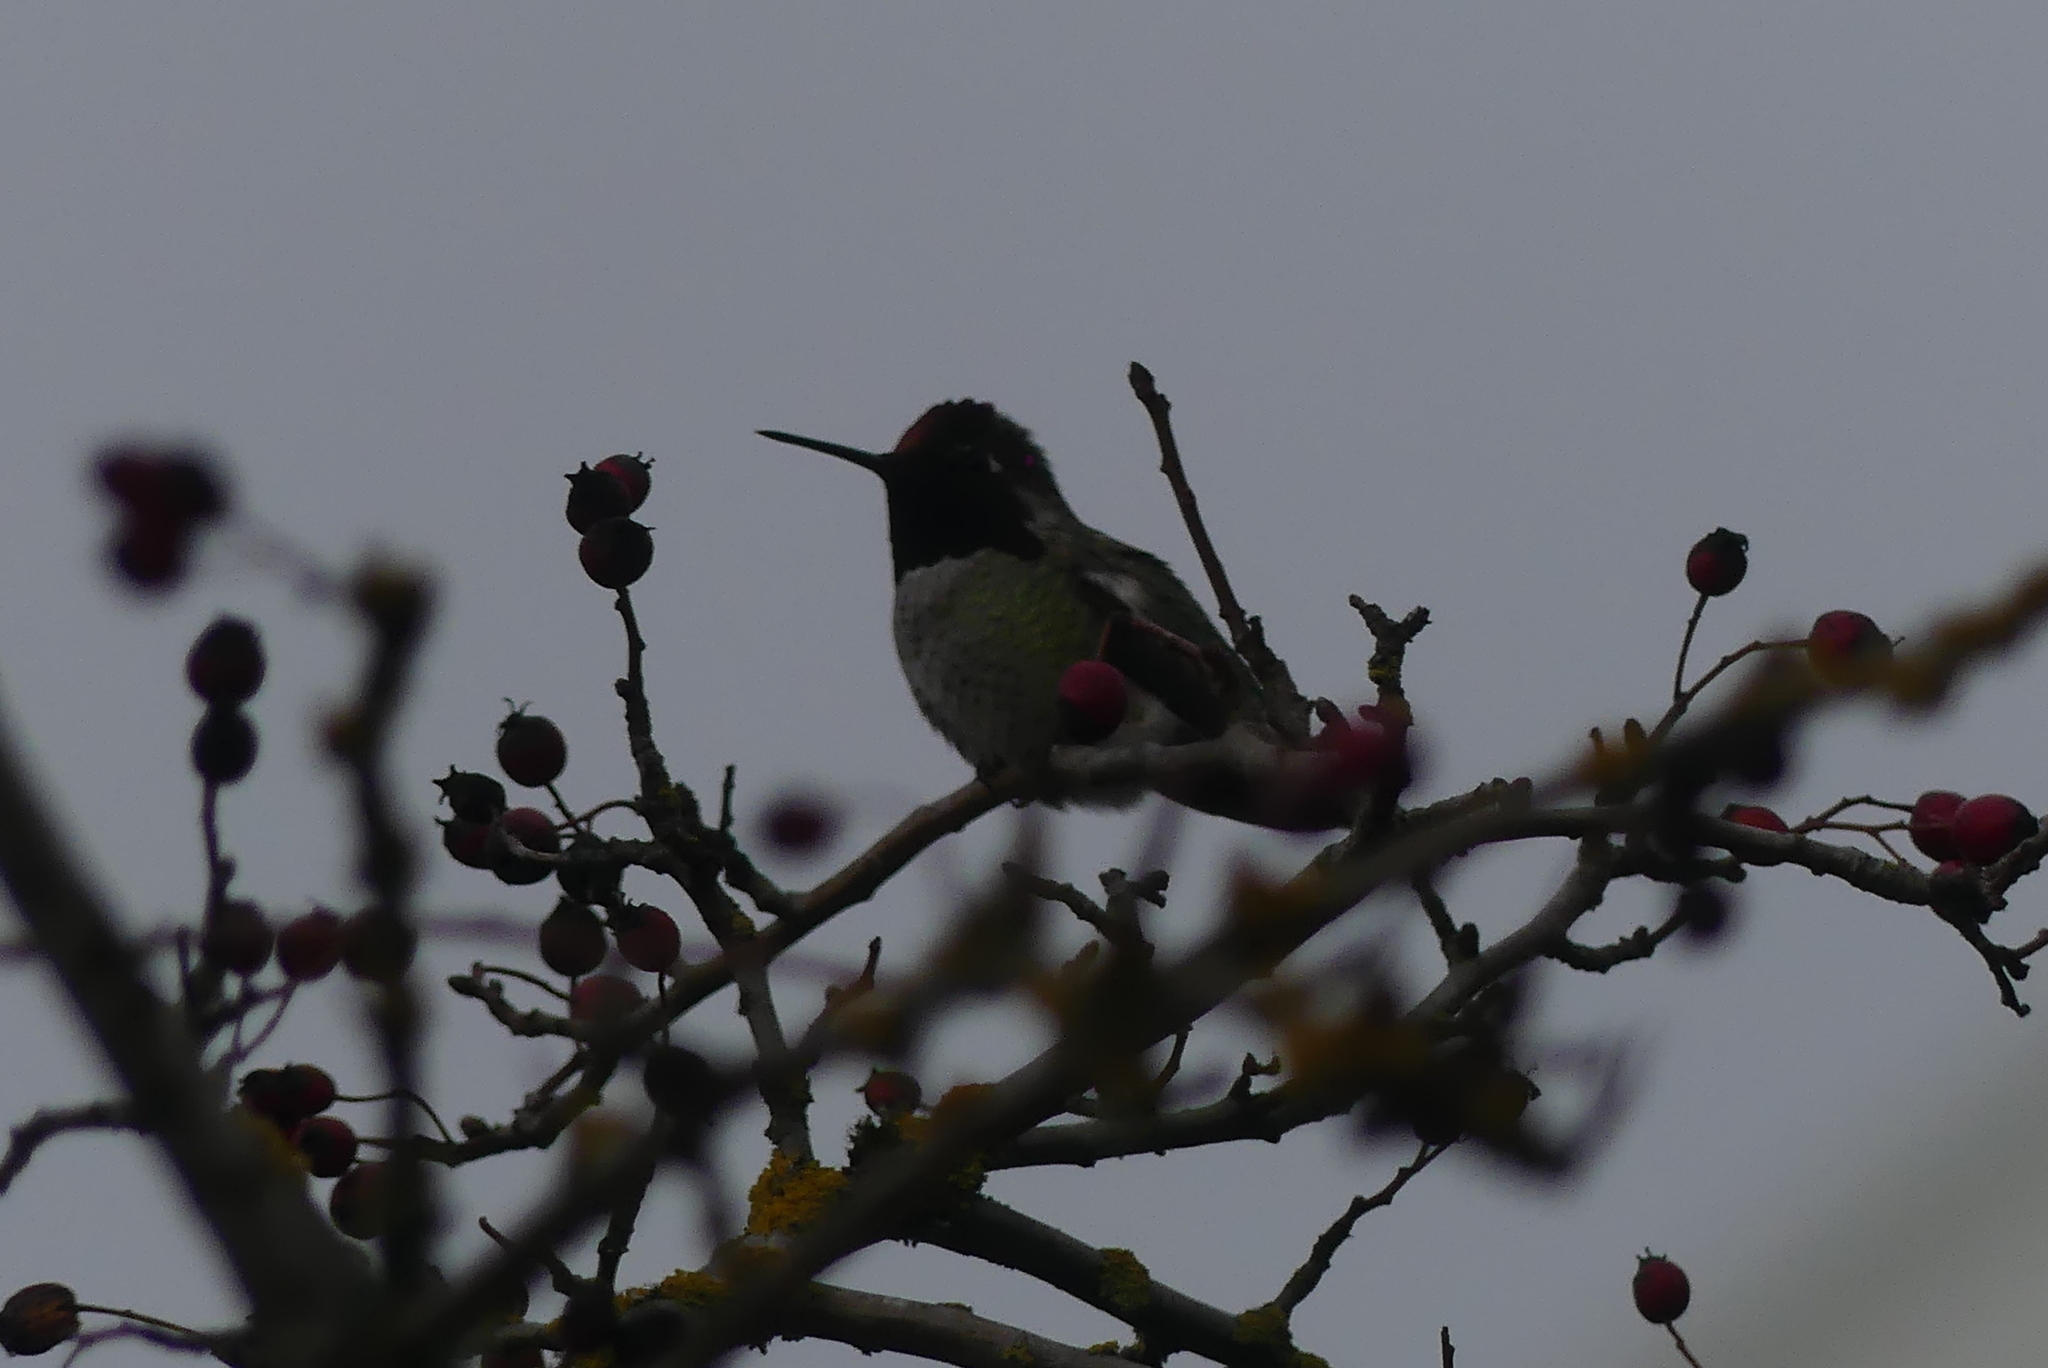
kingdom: Animalia
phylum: Chordata
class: Aves
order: Apodiformes
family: Trochilidae
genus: Calypte
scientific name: Calypte anna
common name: Anna's hummingbird
